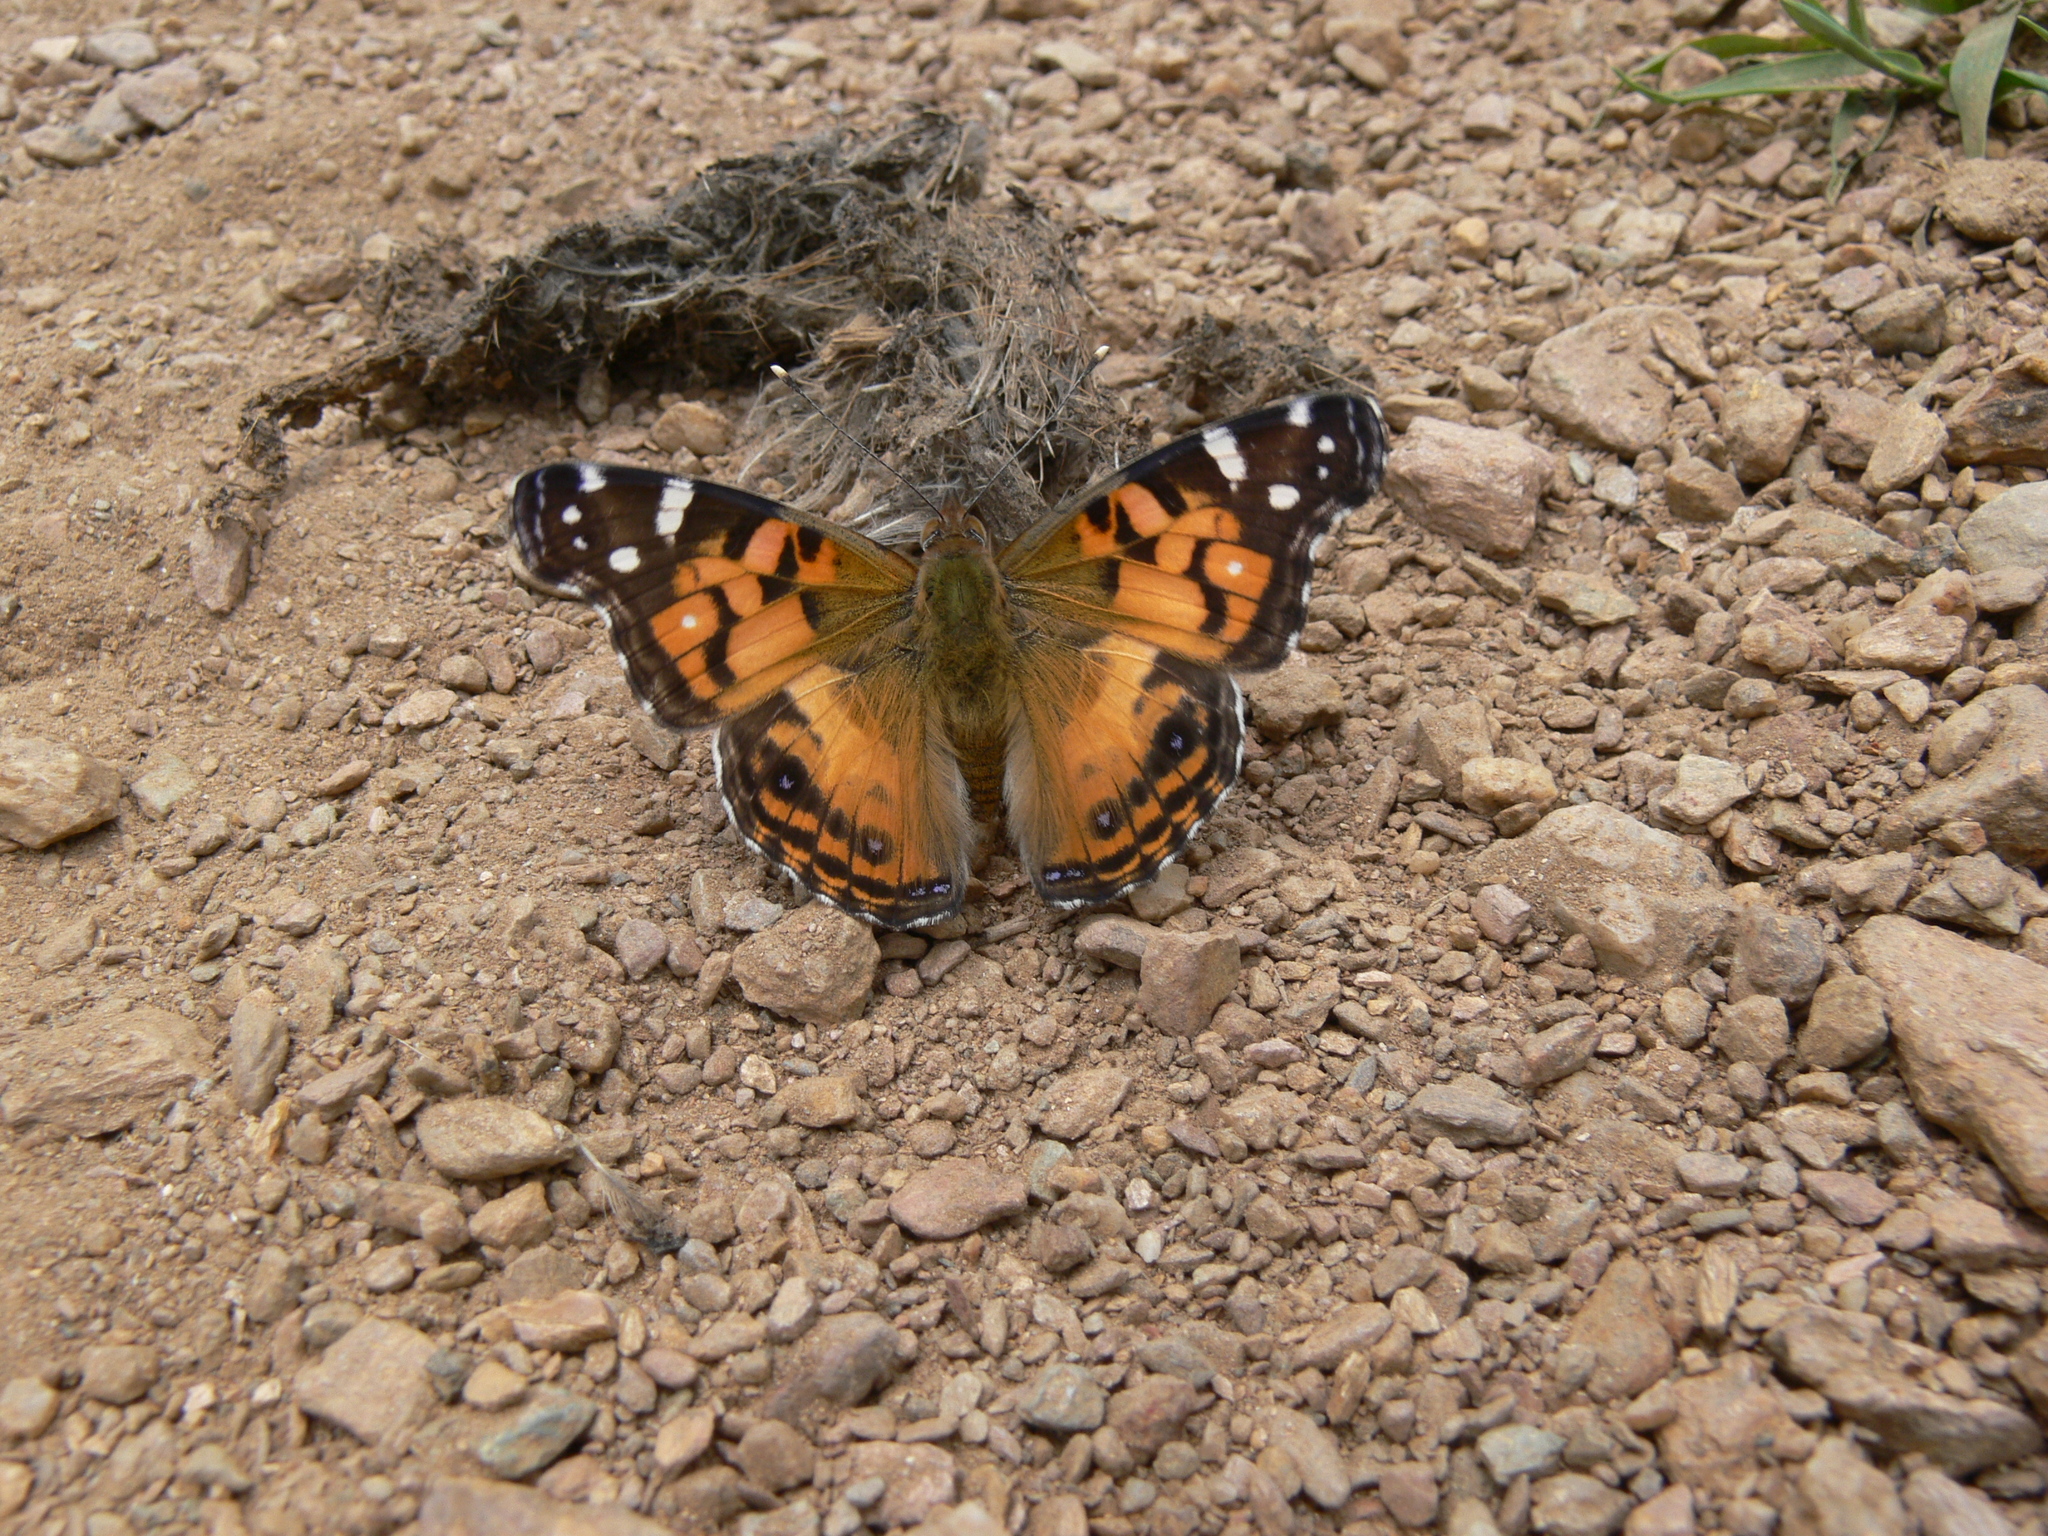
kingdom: Animalia
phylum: Arthropoda
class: Insecta
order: Lepidoptera
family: Nymphalidae
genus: Vanessa
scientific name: Vanessa virginiensis
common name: American lady
